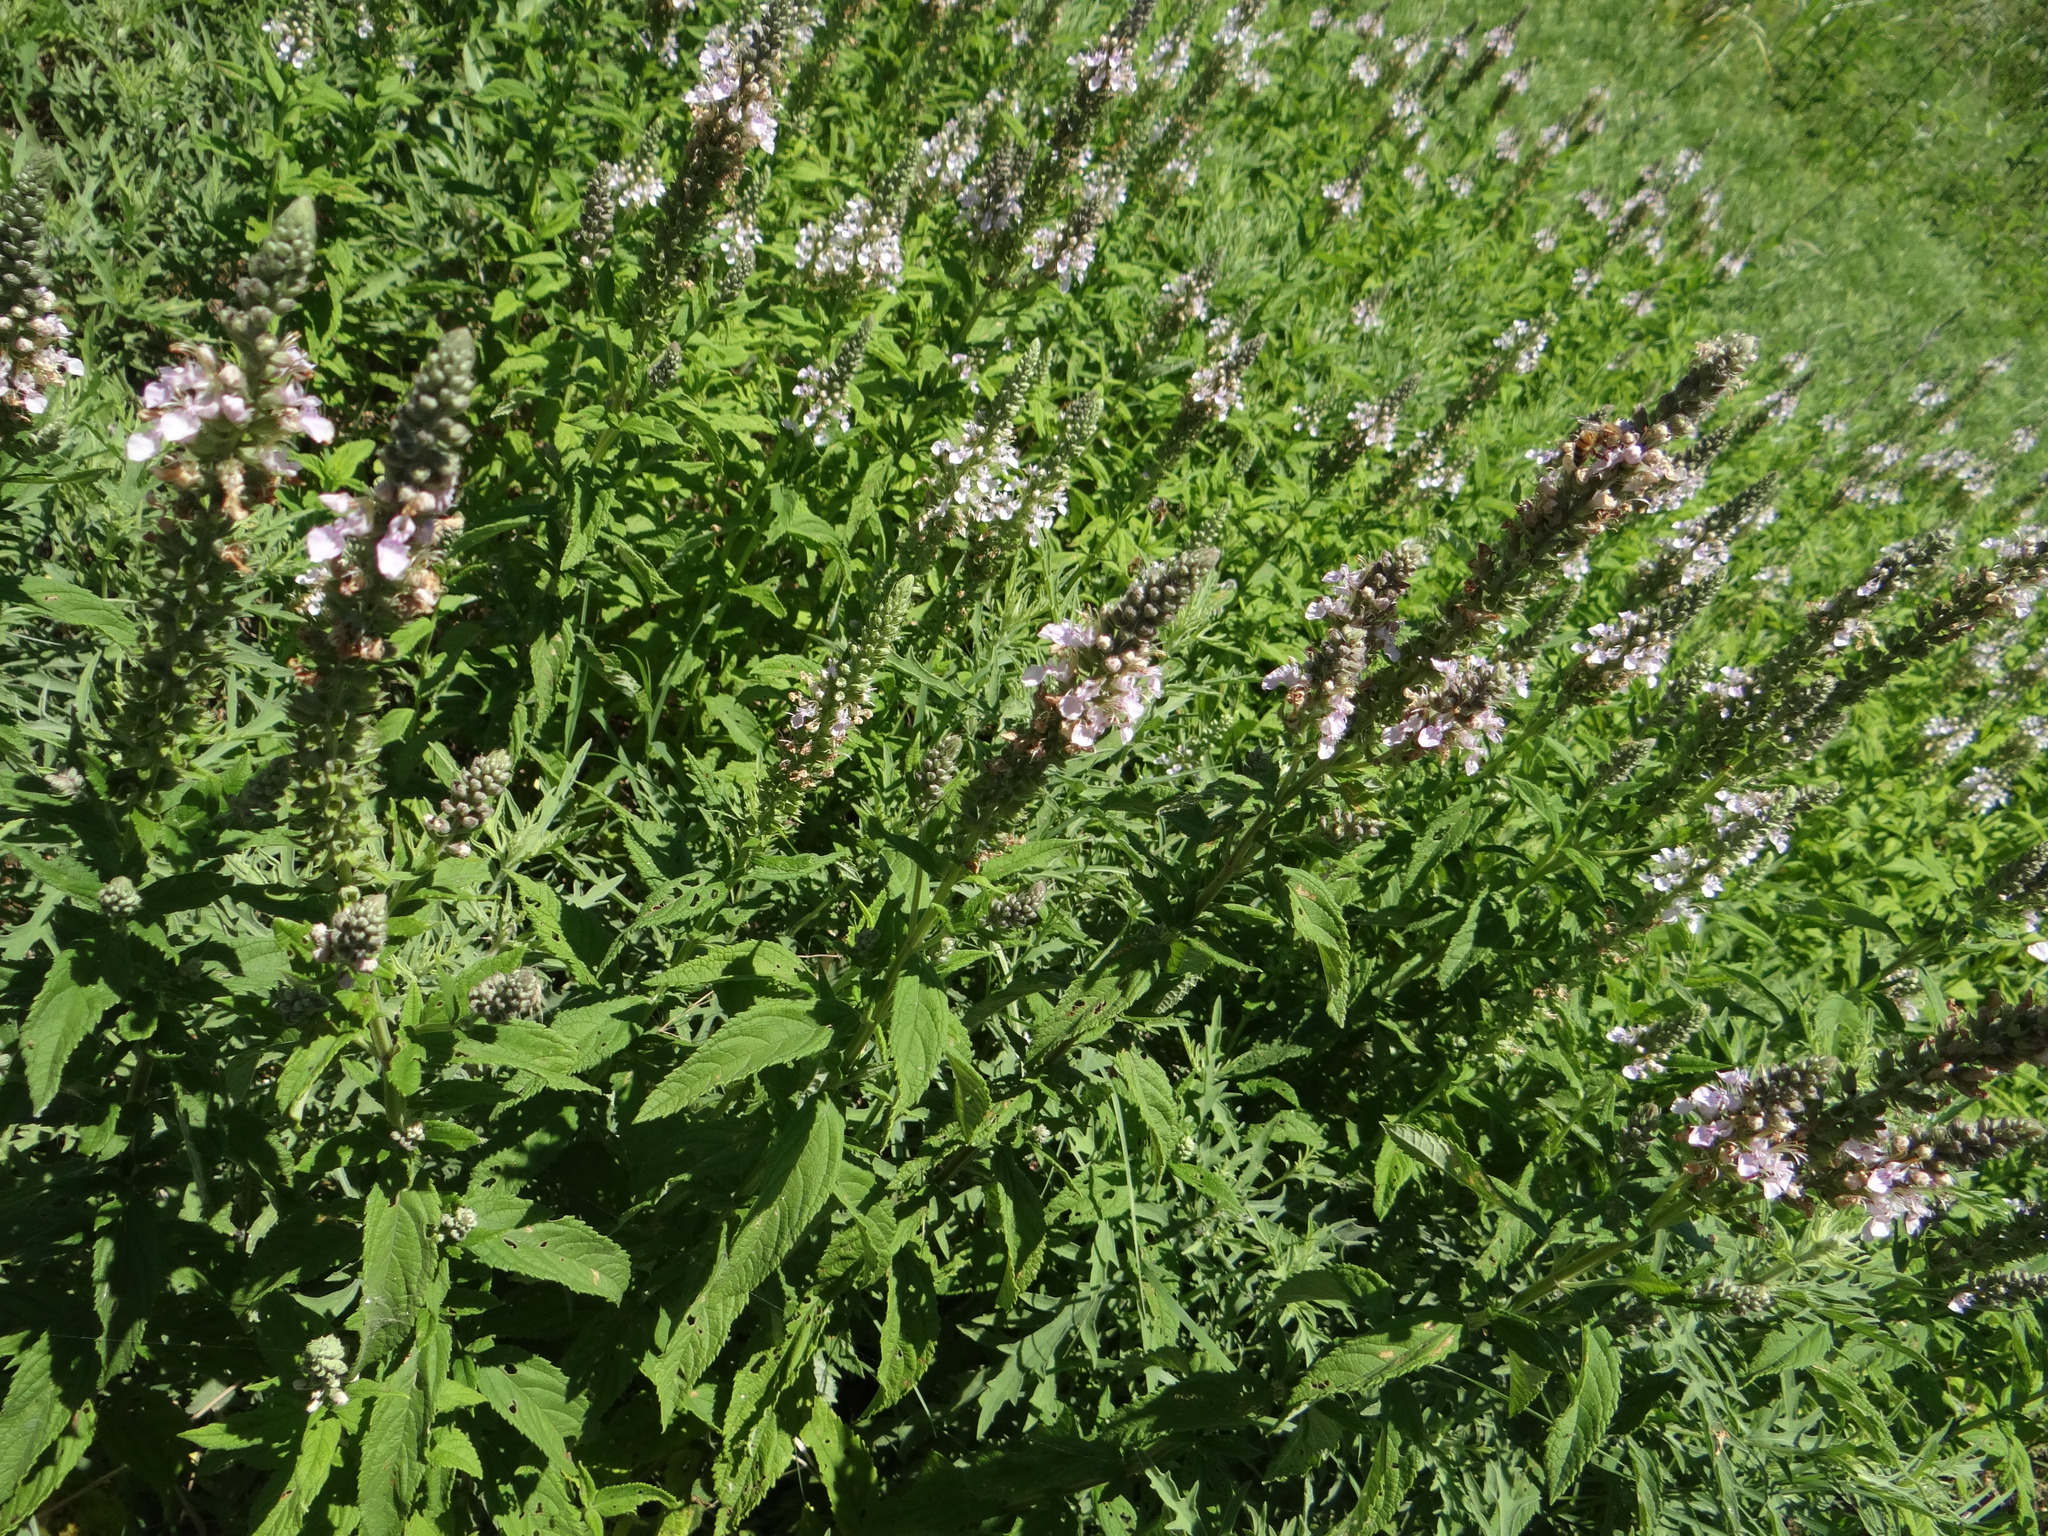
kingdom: Plantae
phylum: Tracheophyta
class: Magnoliopsida
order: Lamiales
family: Lamiaceae
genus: Teucrium
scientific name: Teucrium canadense
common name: American germander
